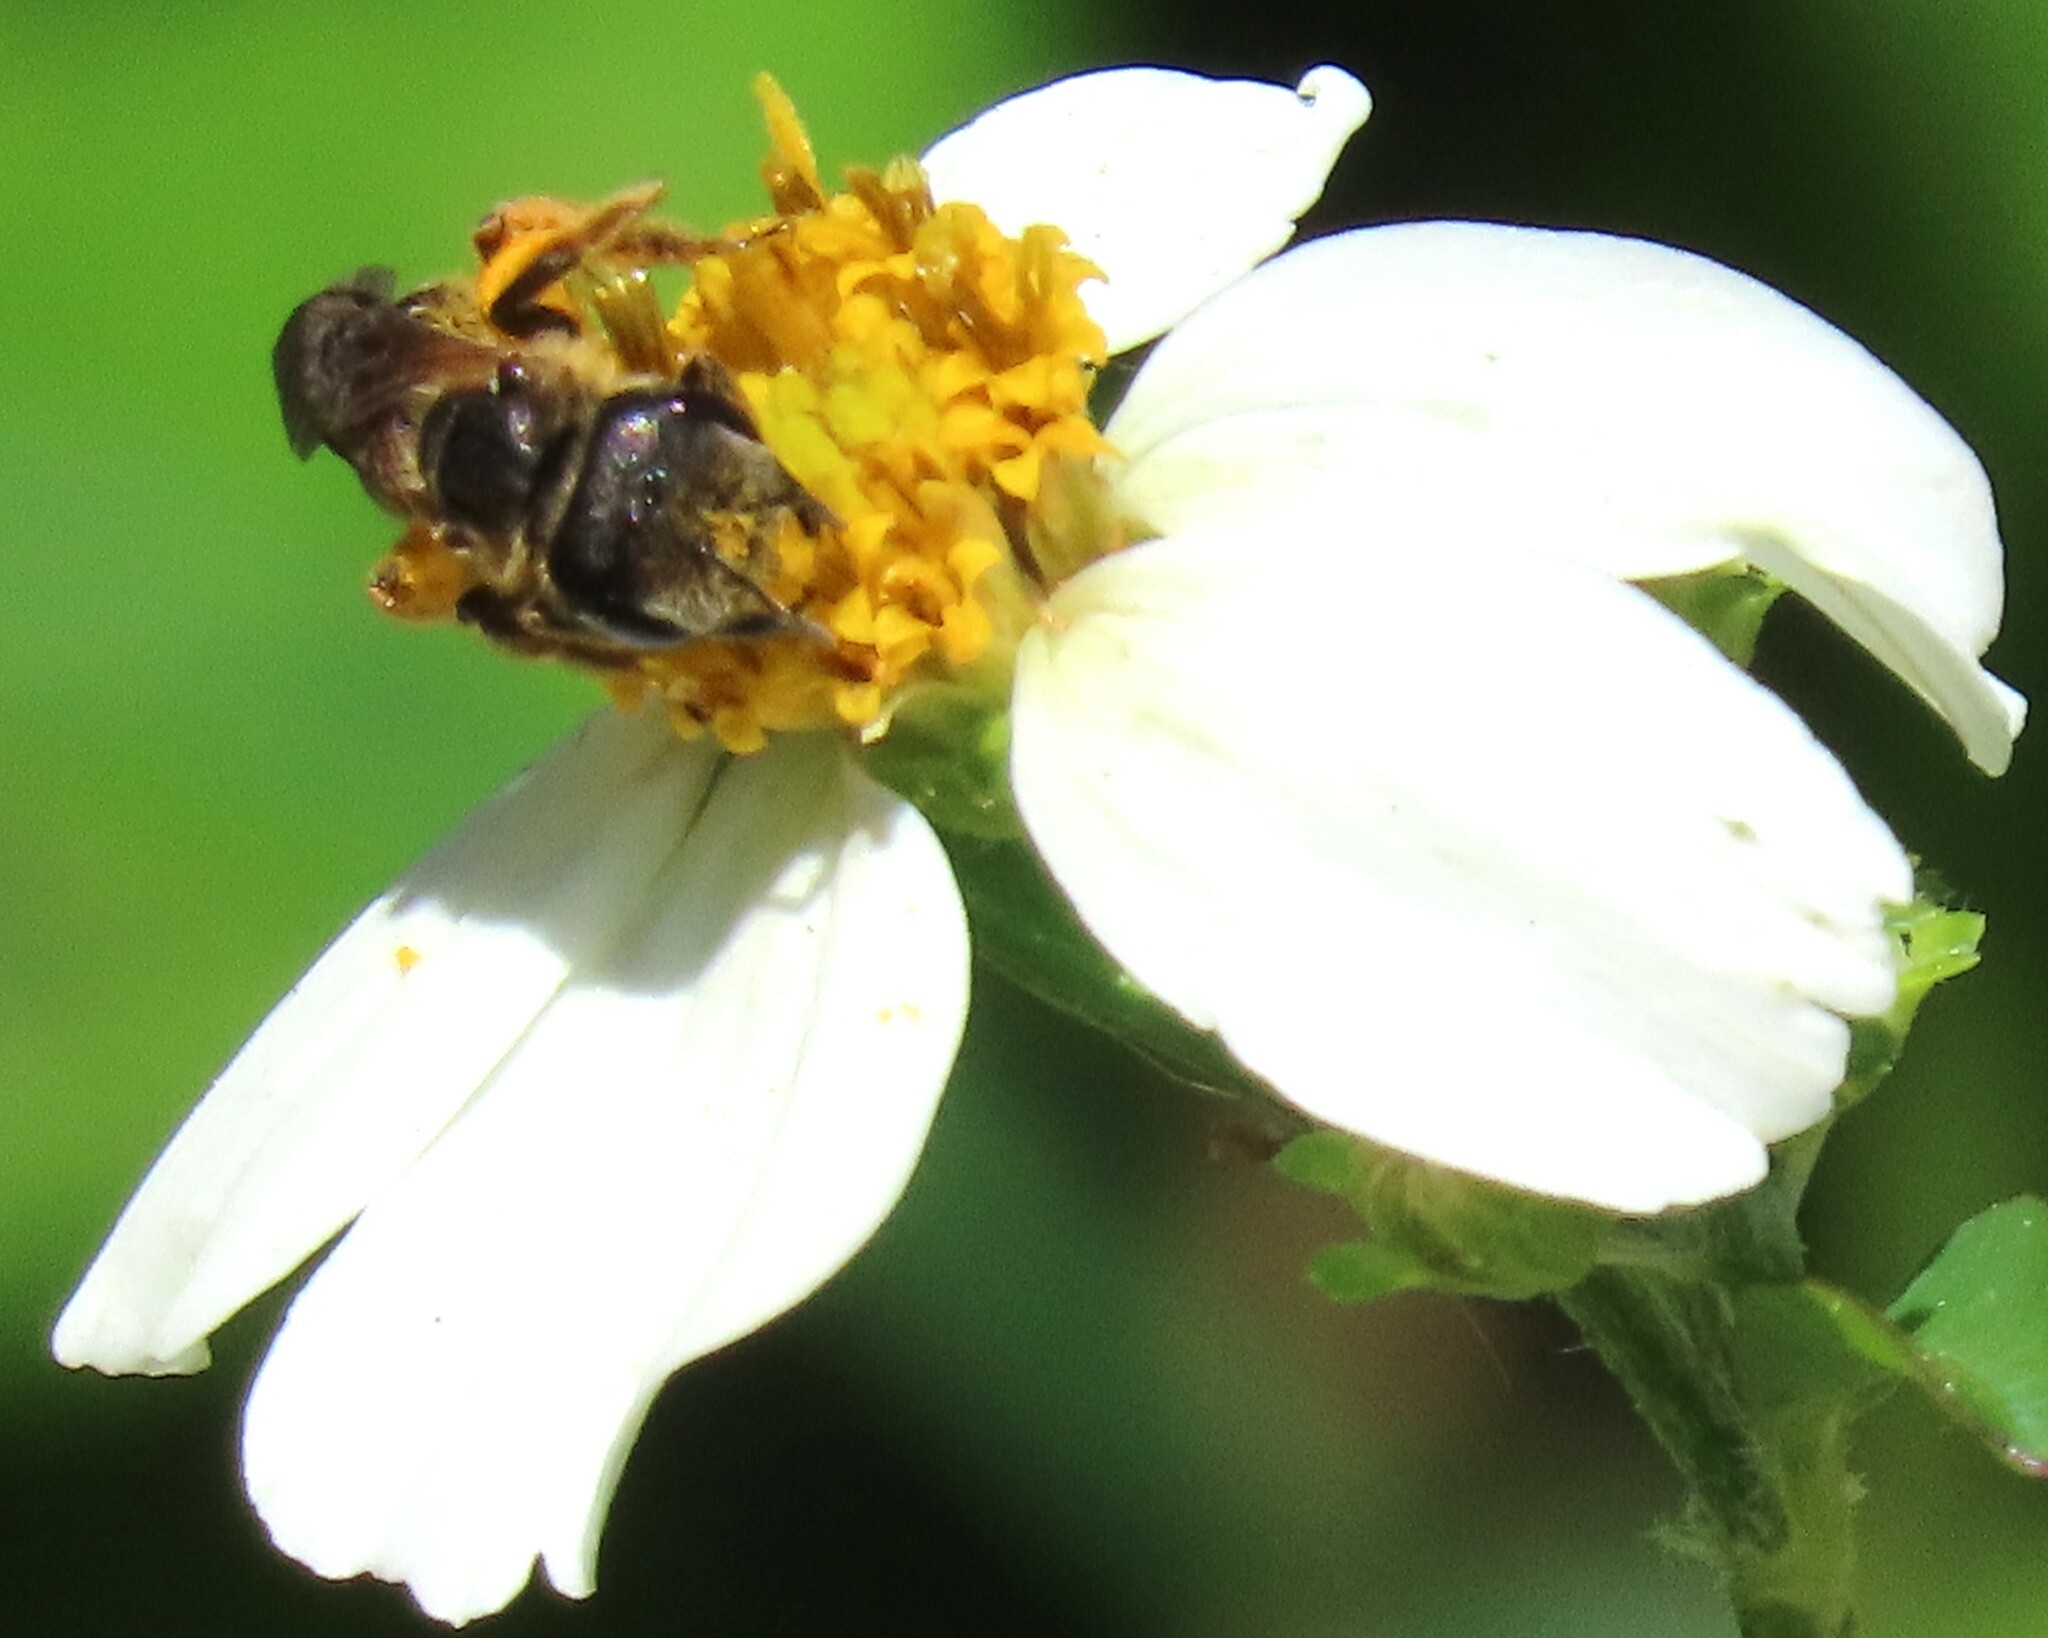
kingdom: Animalia
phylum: Arthropoda
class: Insecta
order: Hymenoptera
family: Halictidae
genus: Halictus
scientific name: Halictus poeyi
